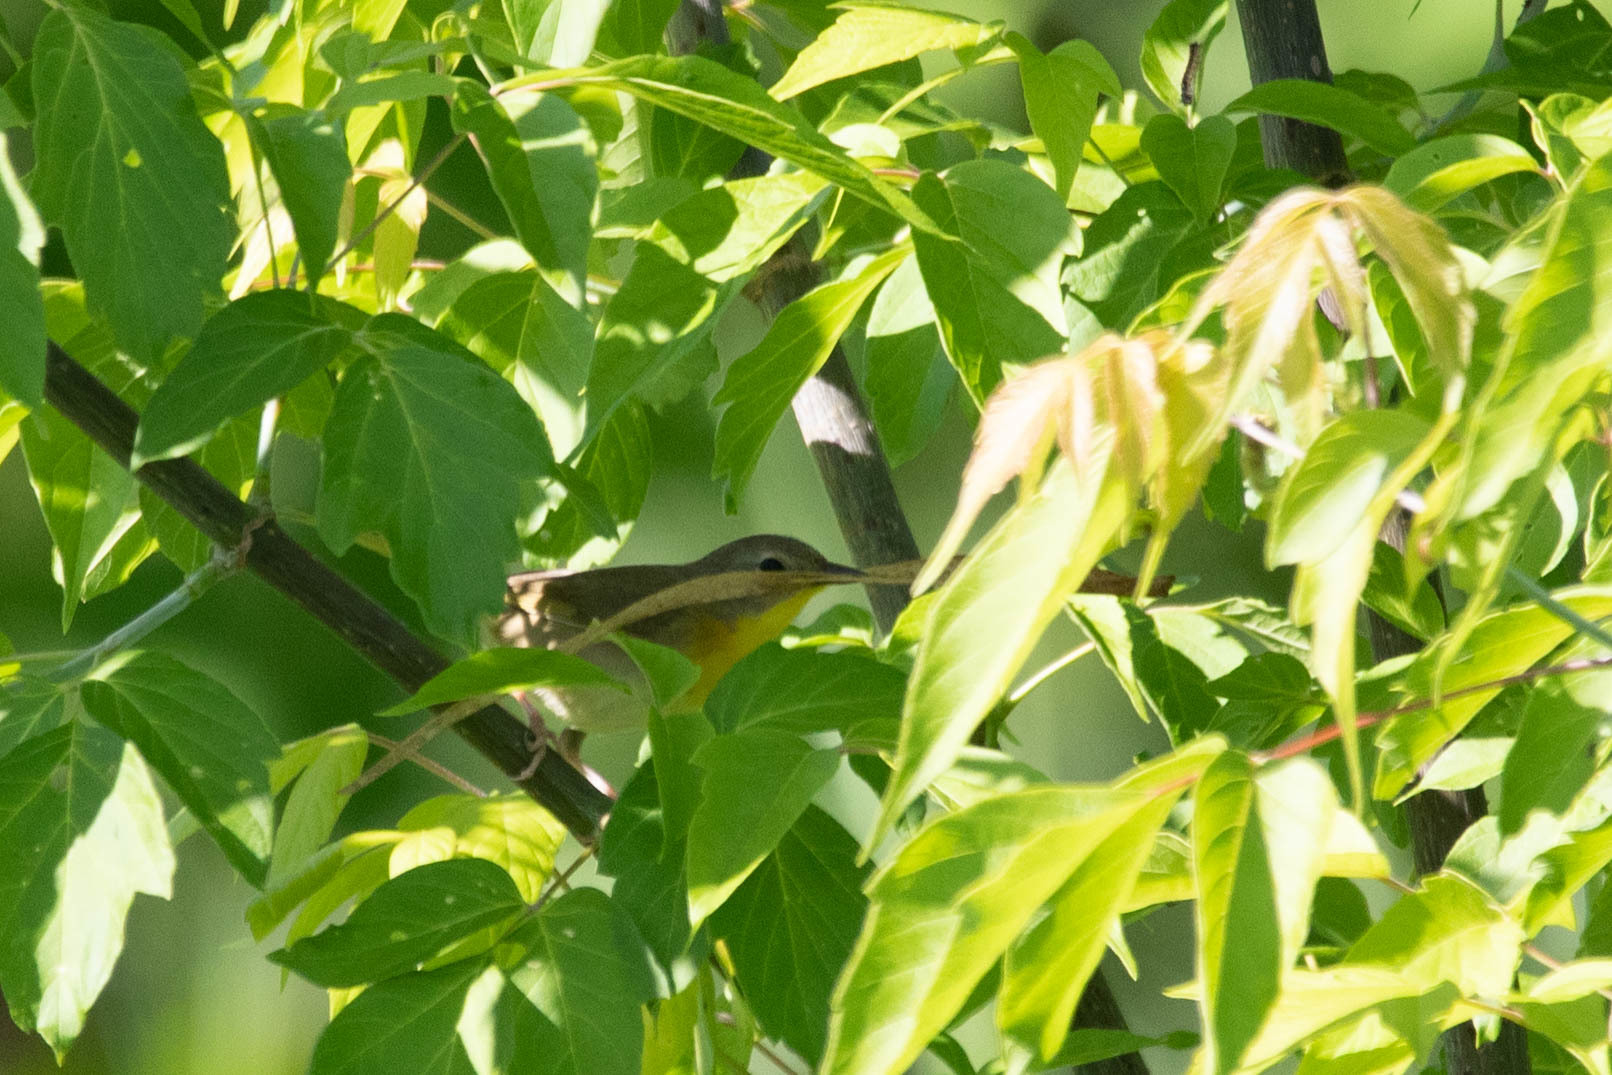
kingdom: Animalia
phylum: Chordata
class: Aves
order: Passeriformes
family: Parulidae
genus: Geothlypis
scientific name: Geothlypis trichas
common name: Common yellowthroat
